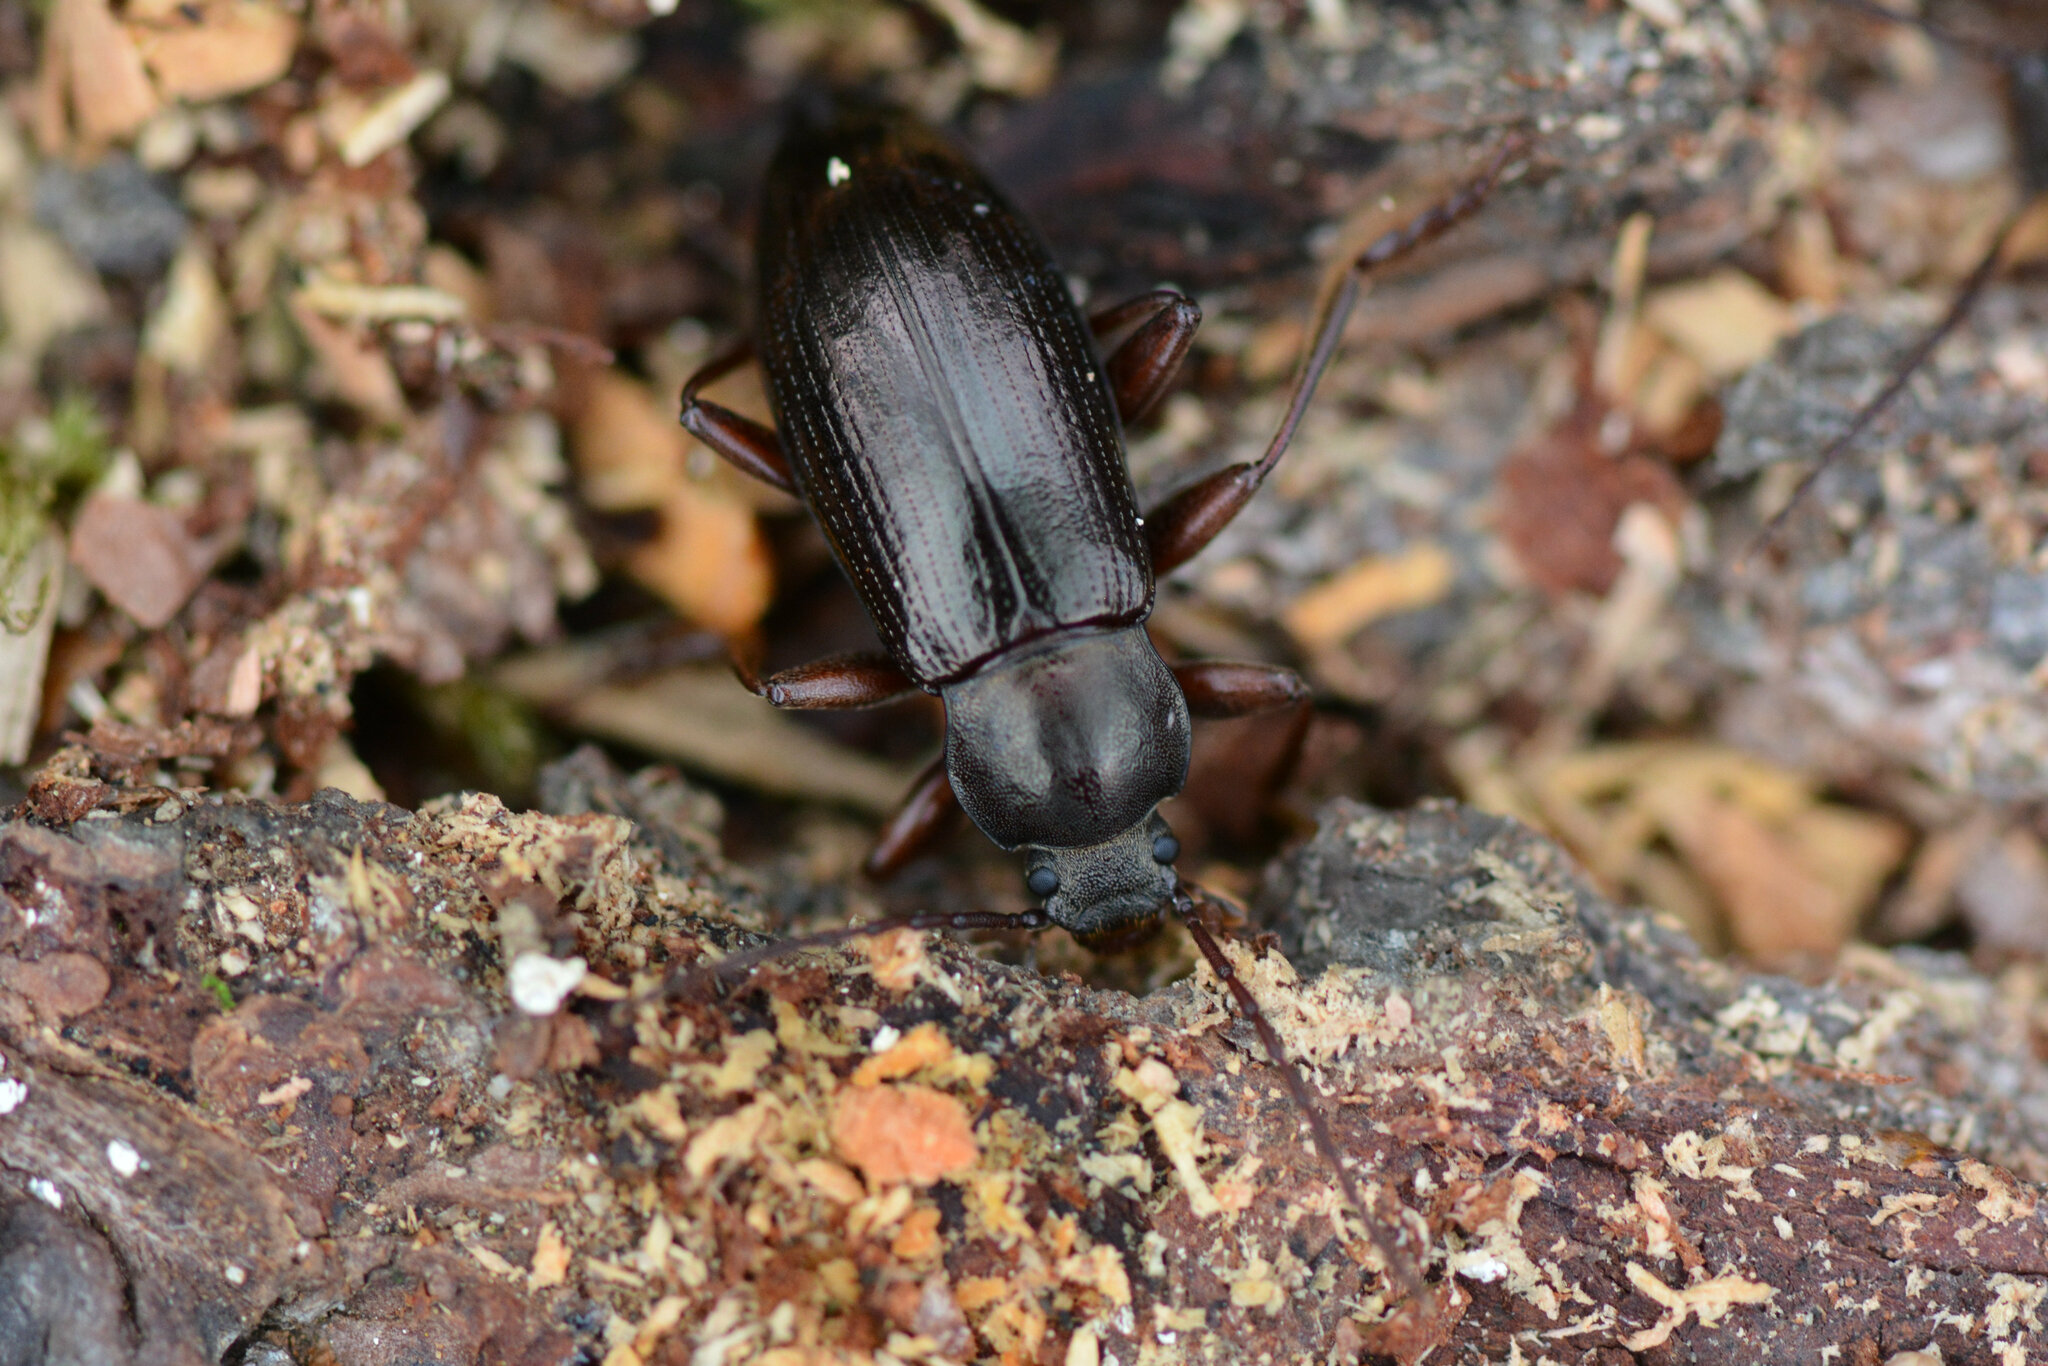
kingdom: Animalia
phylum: Arthropoda
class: Insecta
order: Coleoptera
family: Tenebrionidae
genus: Stenomax
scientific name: Stenomax aeneus
